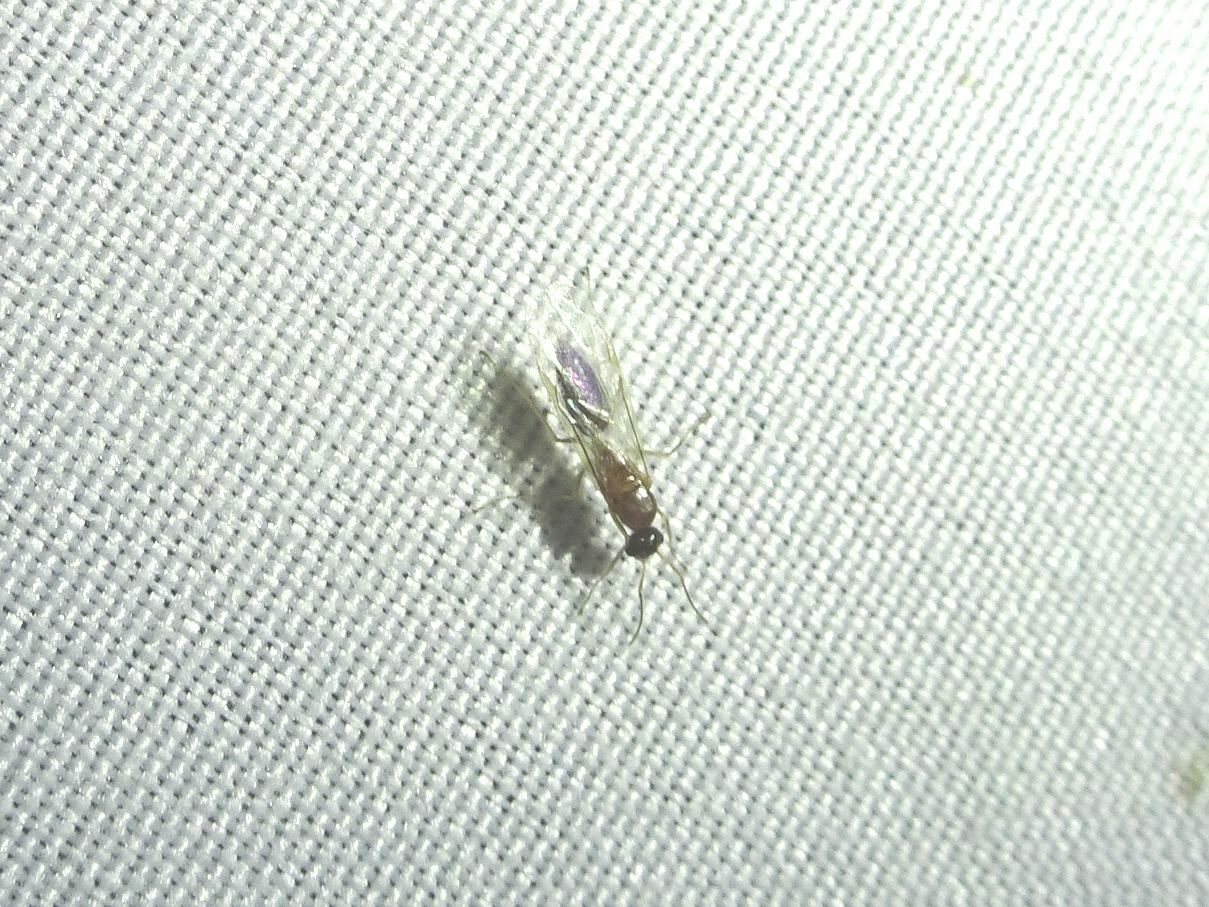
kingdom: Animalia
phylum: Arthropoda
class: Insecta
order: Hymenoptera
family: Formicidae
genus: Camponotus
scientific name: Camponotus truncatus
